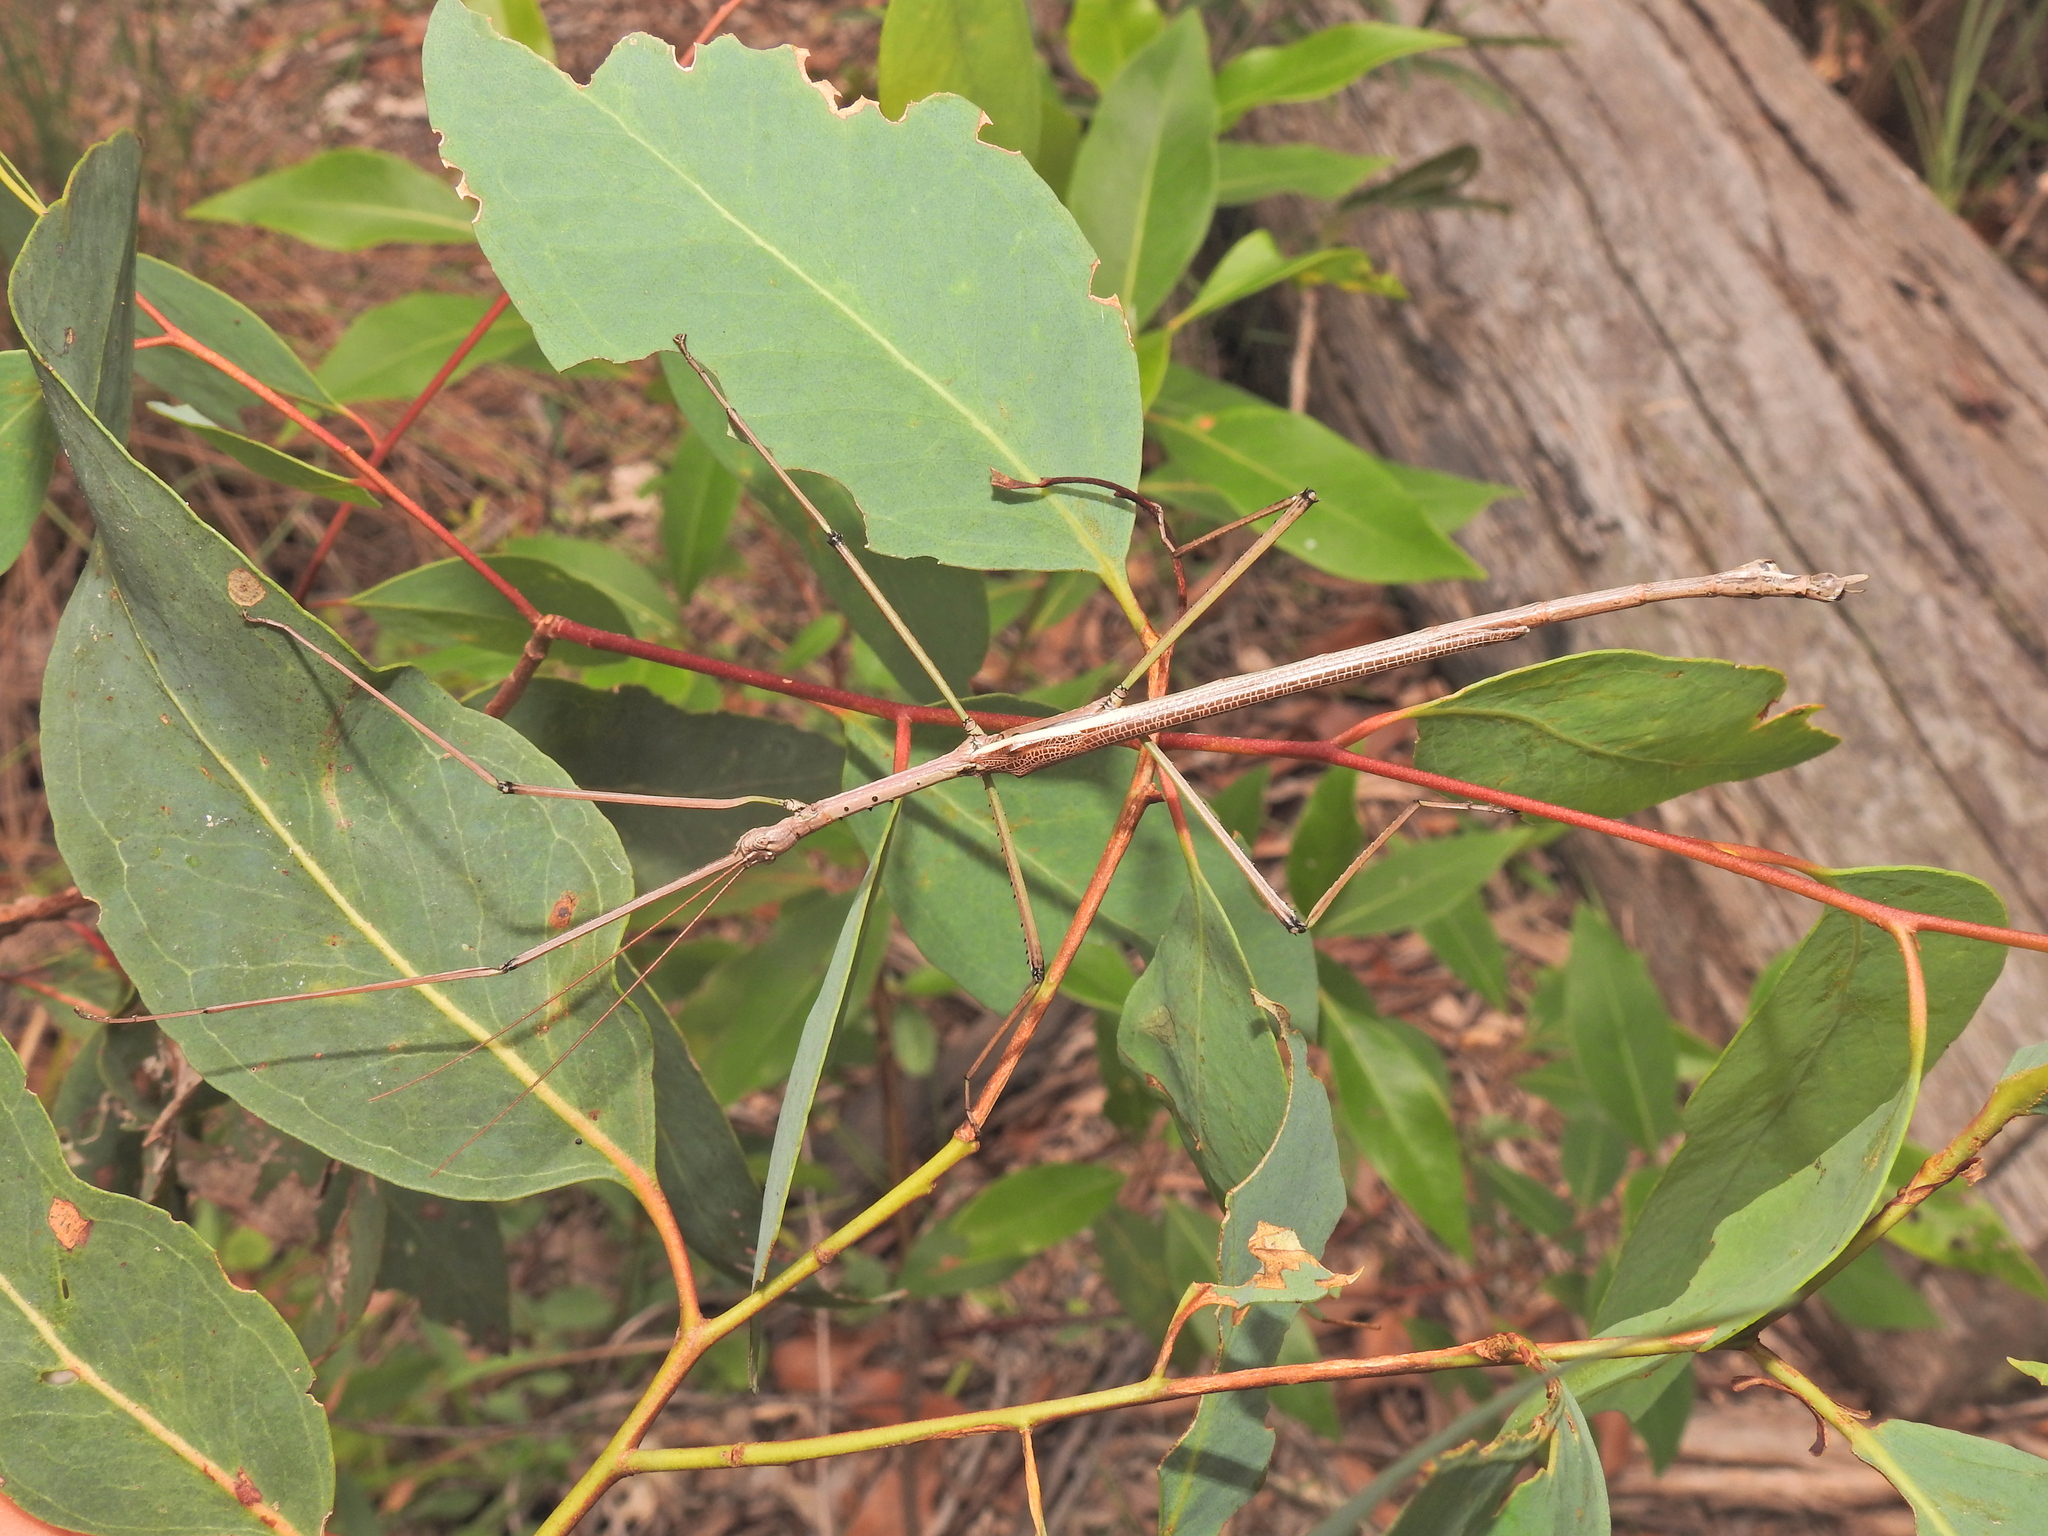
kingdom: Animalia
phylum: Arthropoda
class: Insecta
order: Phasmida
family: Phasmatidae
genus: Anchiale
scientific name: Anchiale austrotessulata
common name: Tessellated stick-insect
